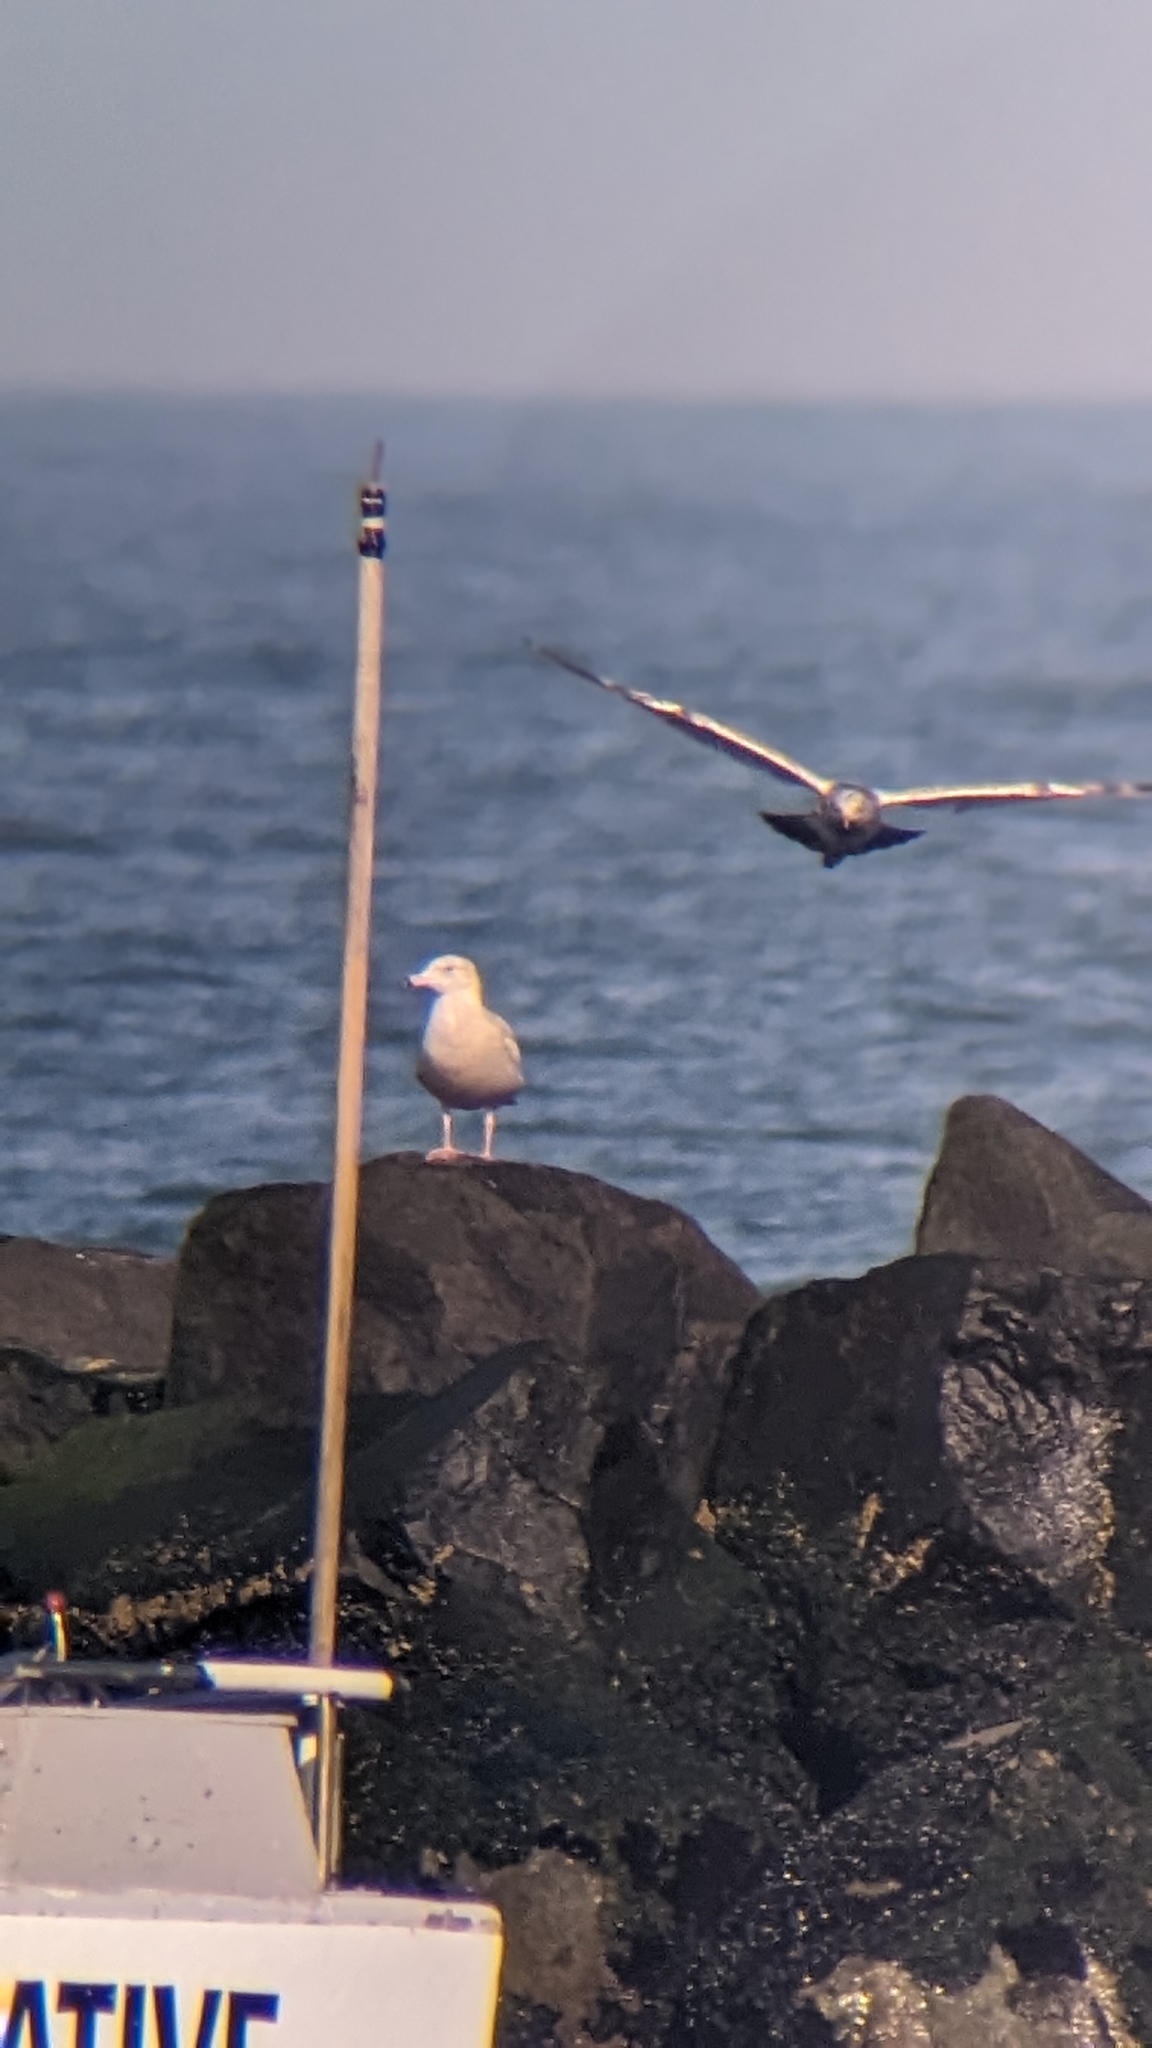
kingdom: Animalia
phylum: Chordata
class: Aves
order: Charadriiformes
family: Laridae
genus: Larus
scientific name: Larus hyperboreus
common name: Glaucous gull
